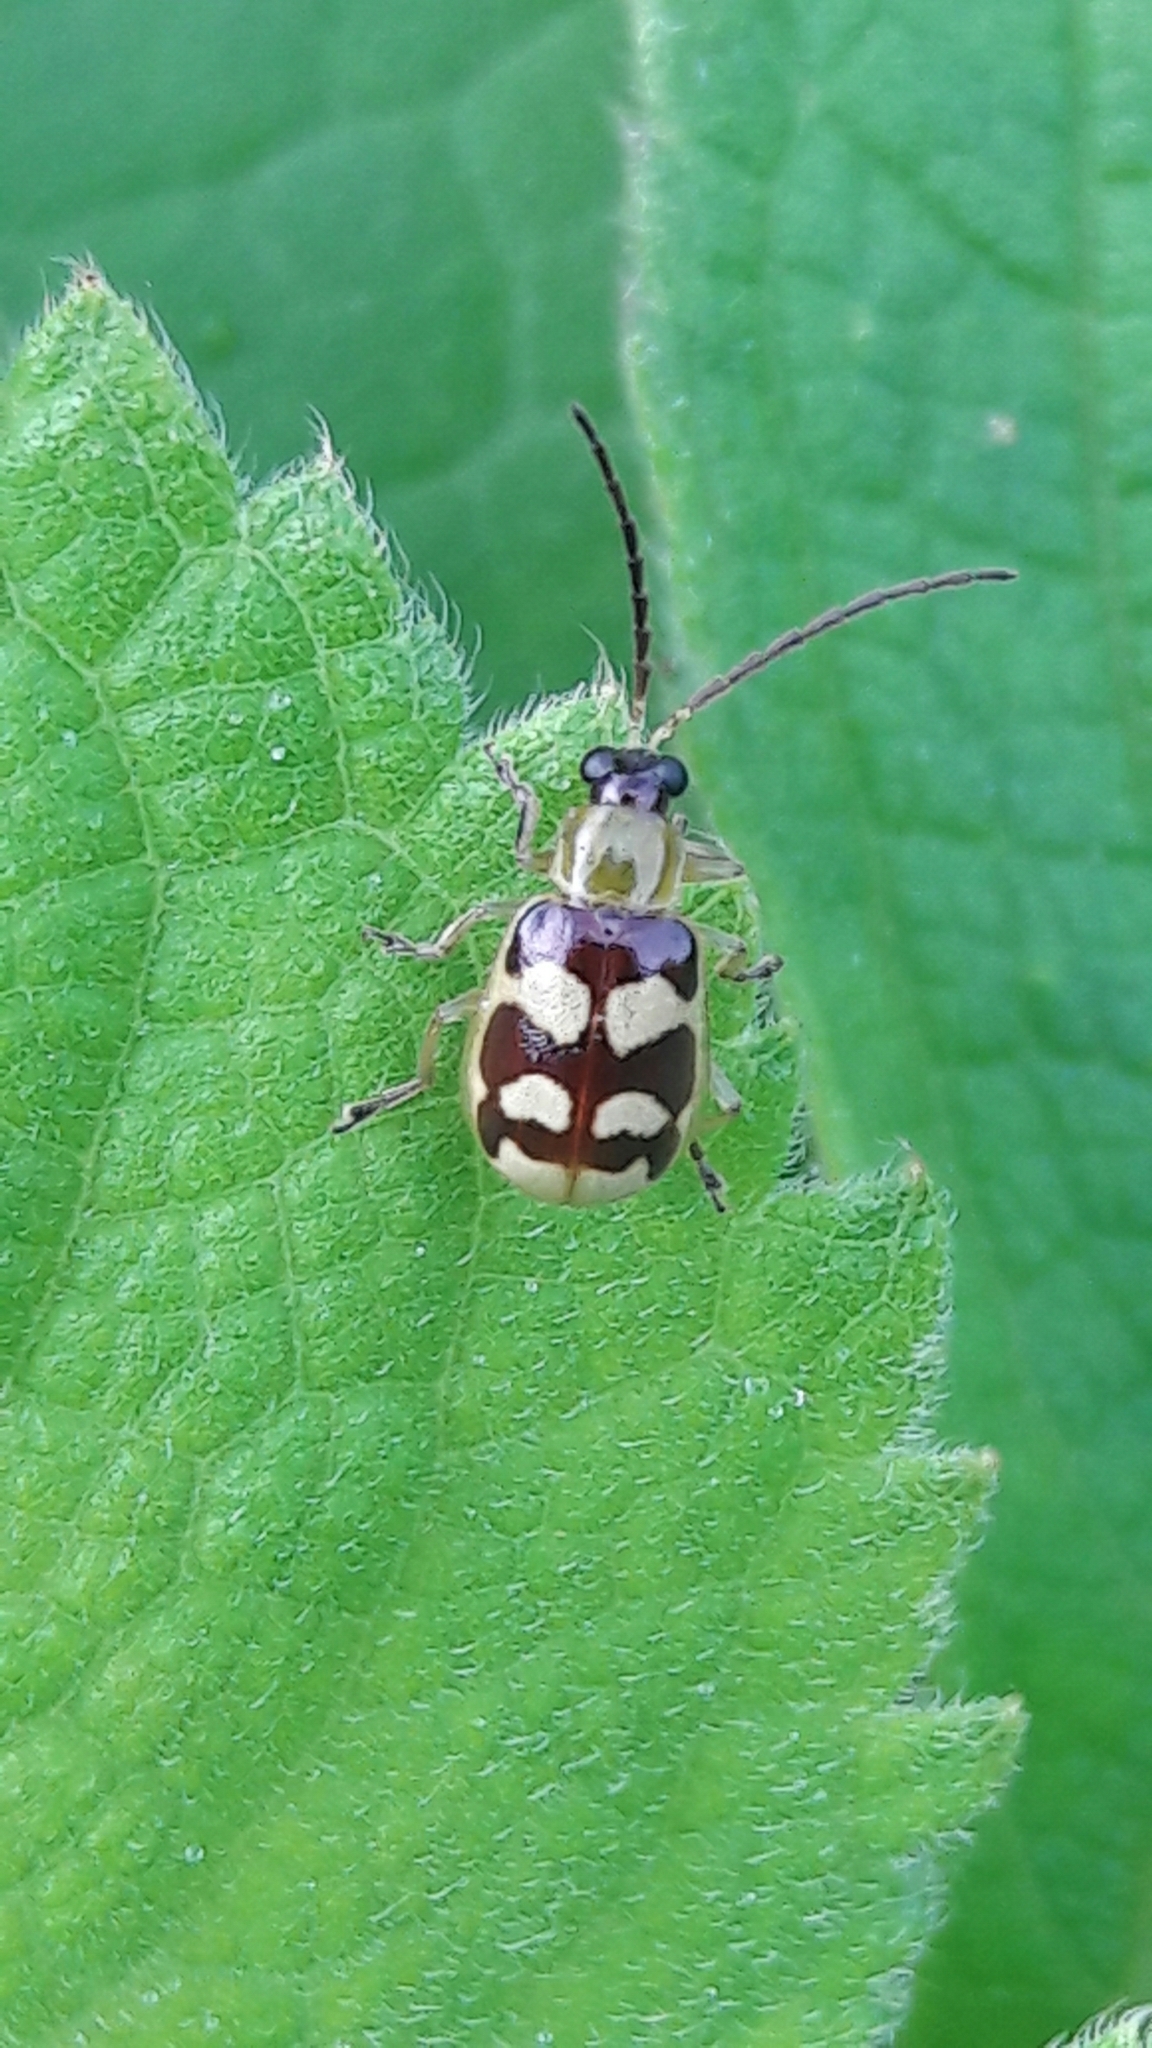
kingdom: Animalia
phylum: Arthropoda
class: Insecta
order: Coleoptera
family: Chrysomelidae
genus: Basiprionota
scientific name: Basiprionota sinuata
